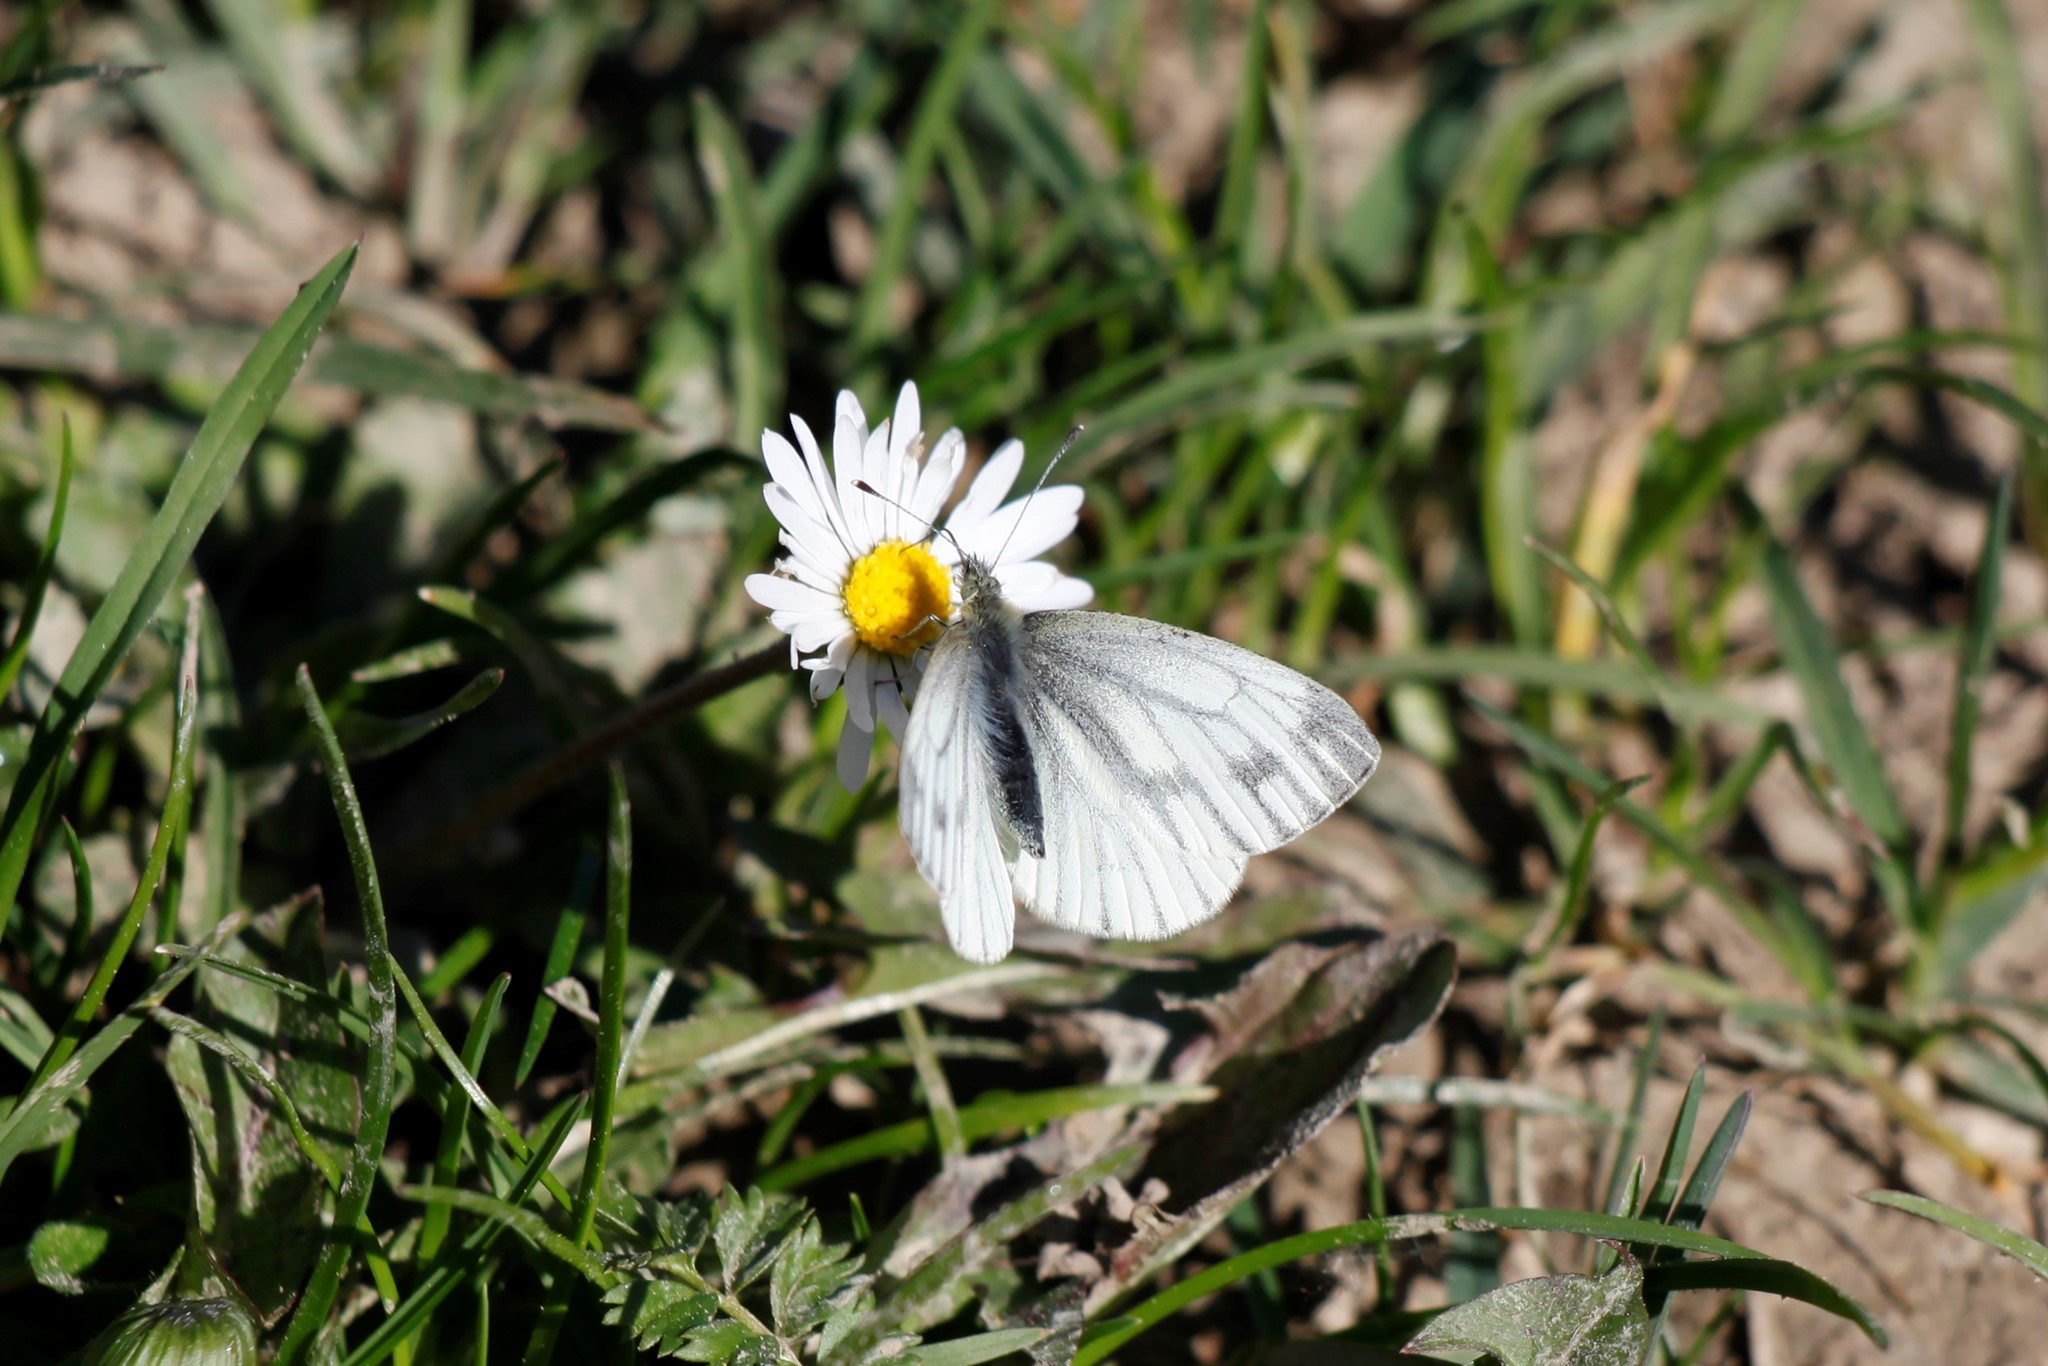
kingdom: Animalia
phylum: Arthropoda
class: Insecta
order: Lepidoptera
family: Pieridae
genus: Pieris
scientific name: Pieris napi
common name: Green-veined white
